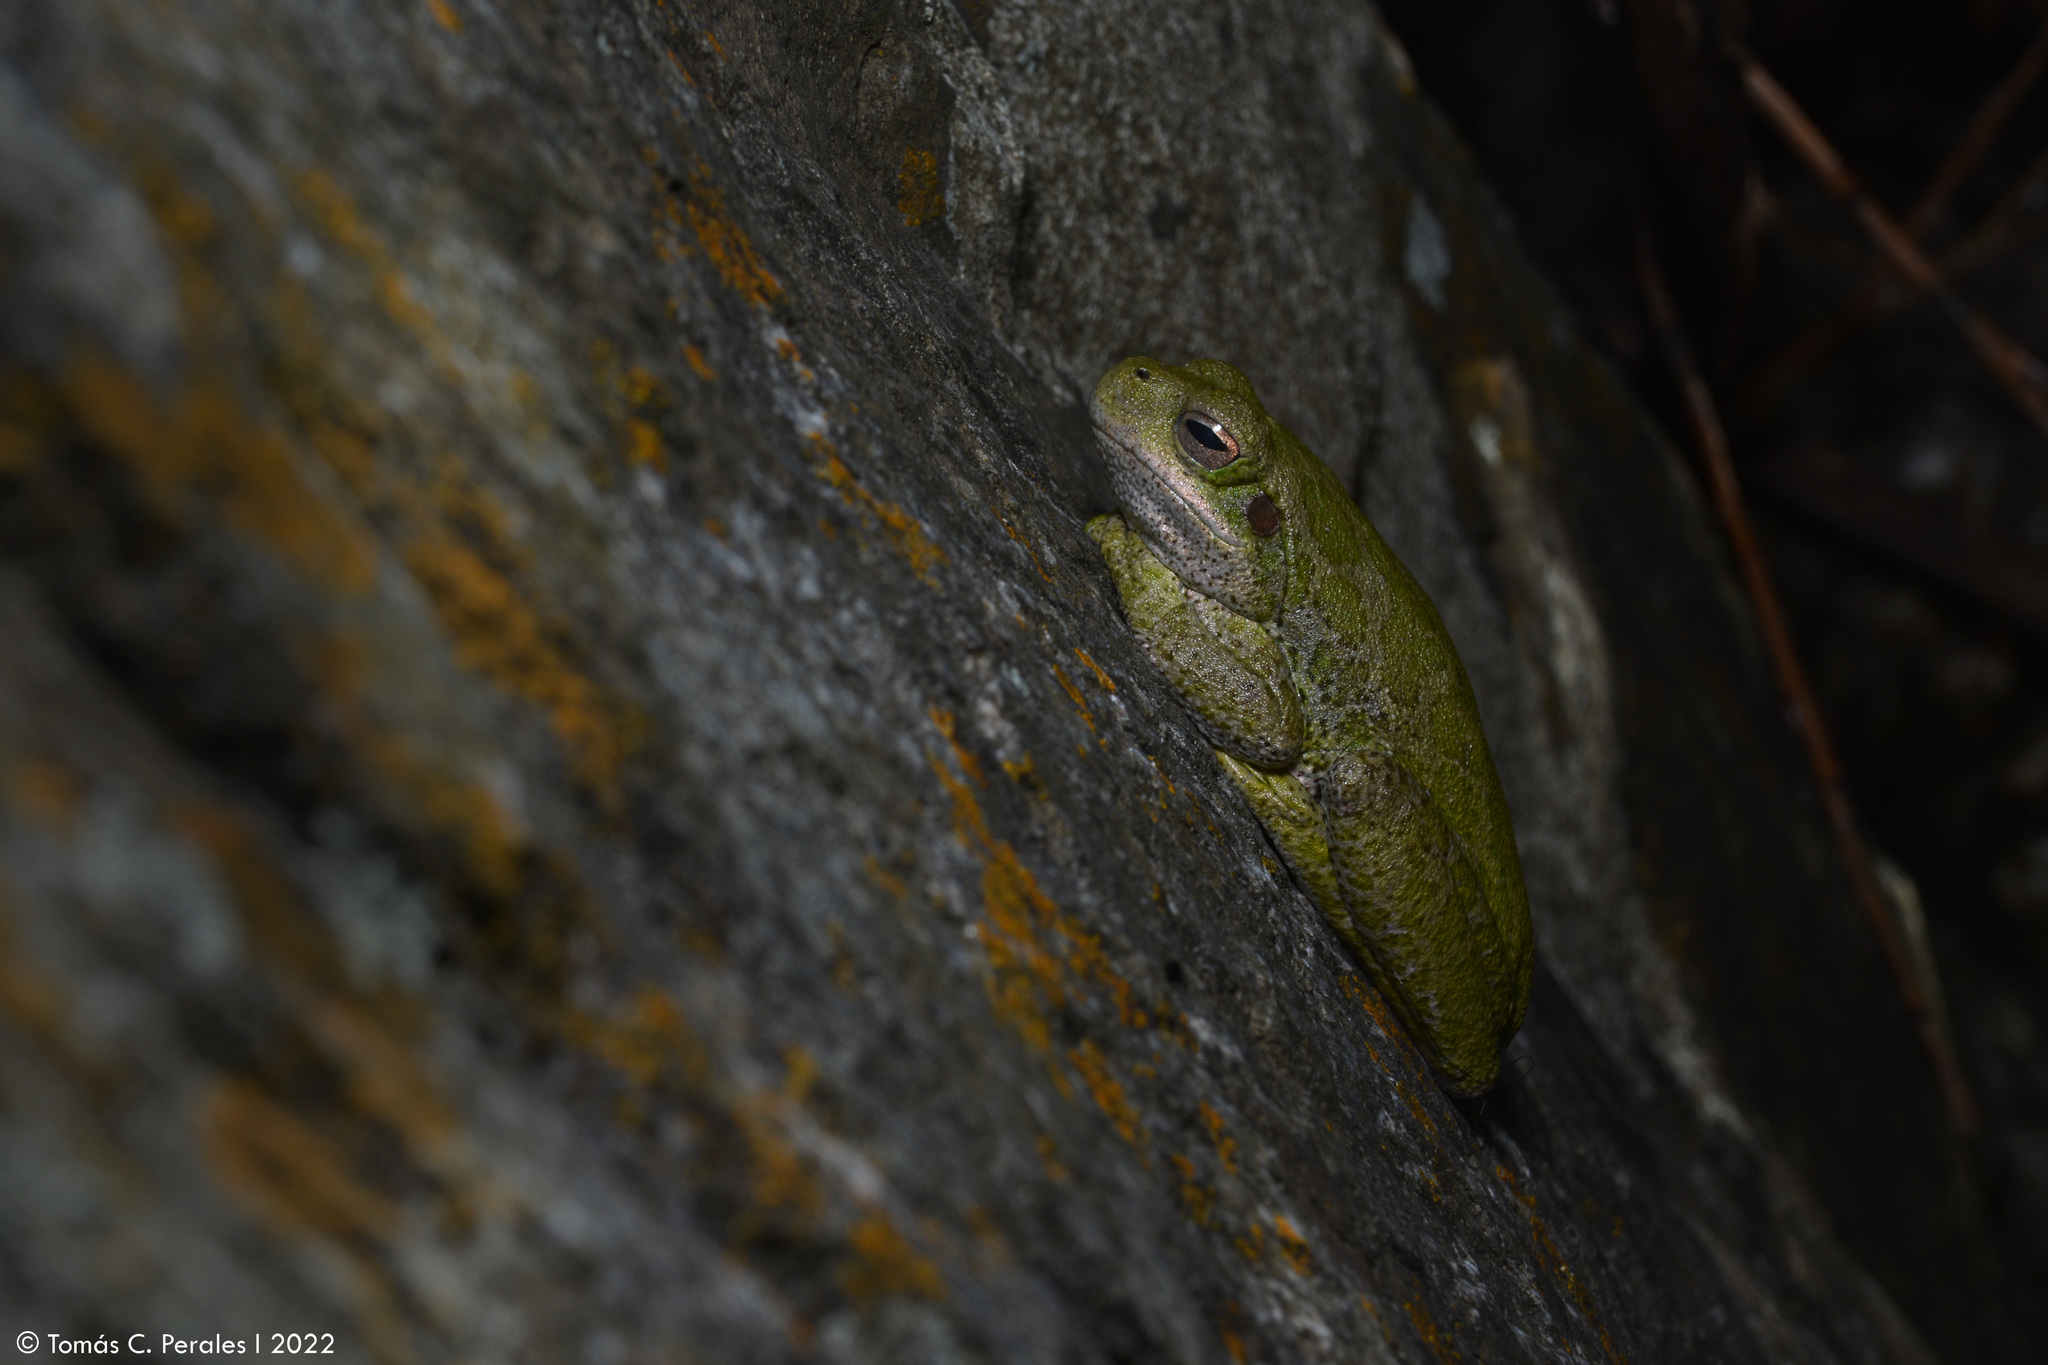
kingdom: Animalia
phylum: Chordata
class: Amphibia
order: Anura
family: Hylidae
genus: Boana
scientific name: Boana cordobae
